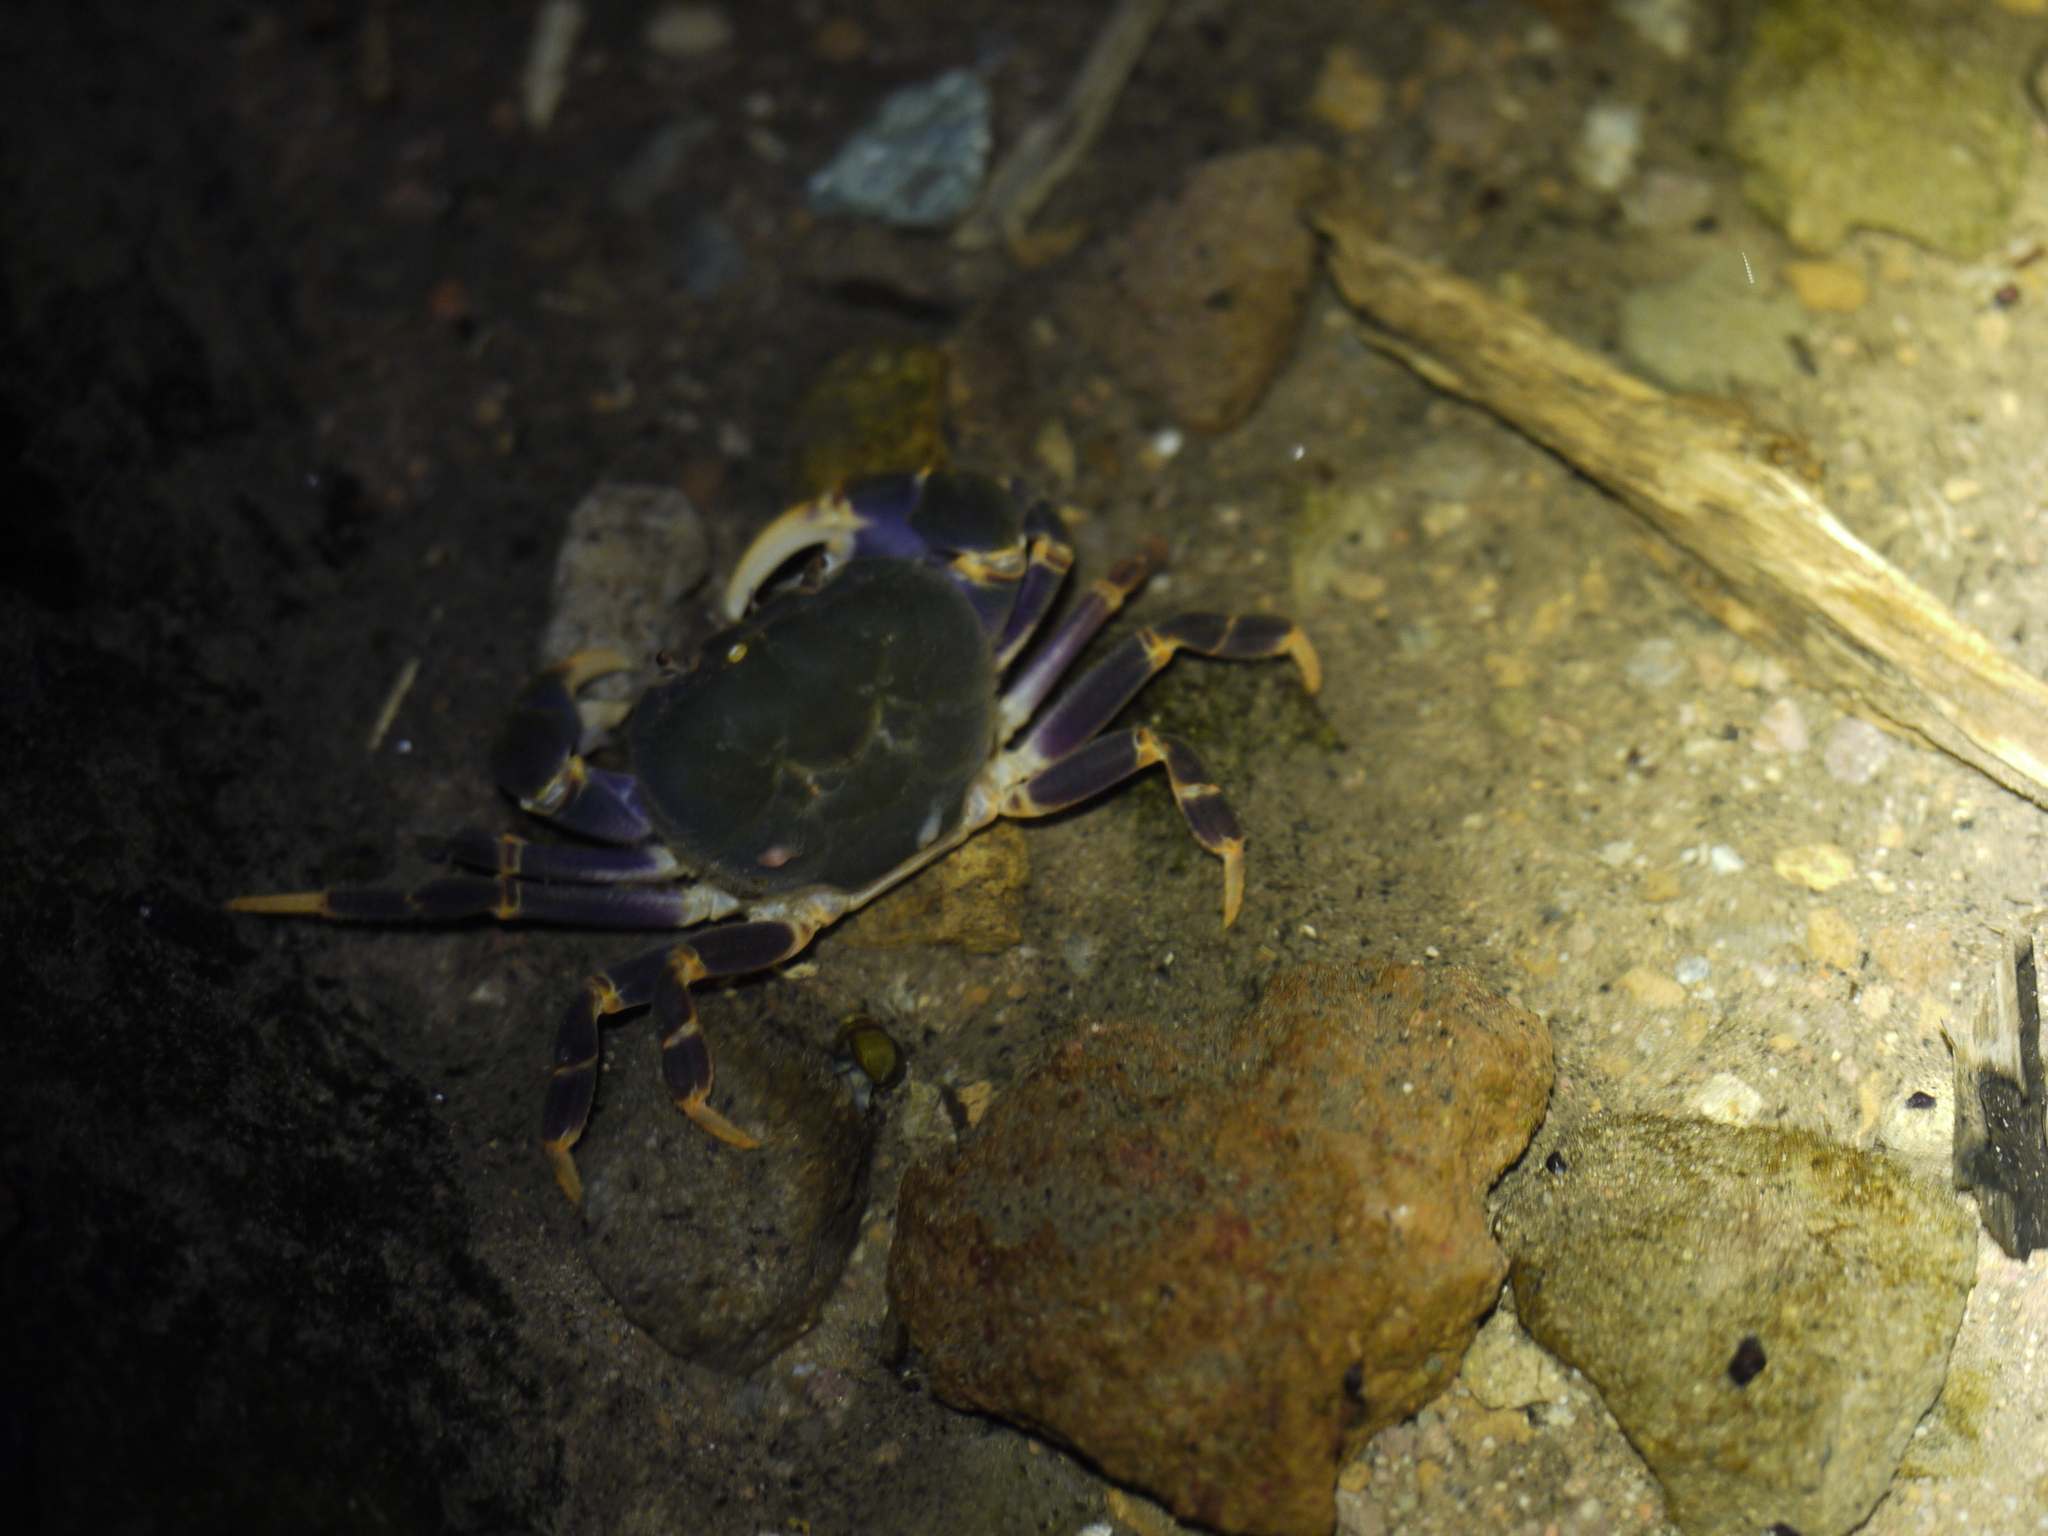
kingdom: Animalia
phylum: Arthropoda
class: Malacostraca
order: Decapoda
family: Potamidae
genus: Geothelphusa
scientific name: Geothelphusa miyazakii
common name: Miyazaki's crab
